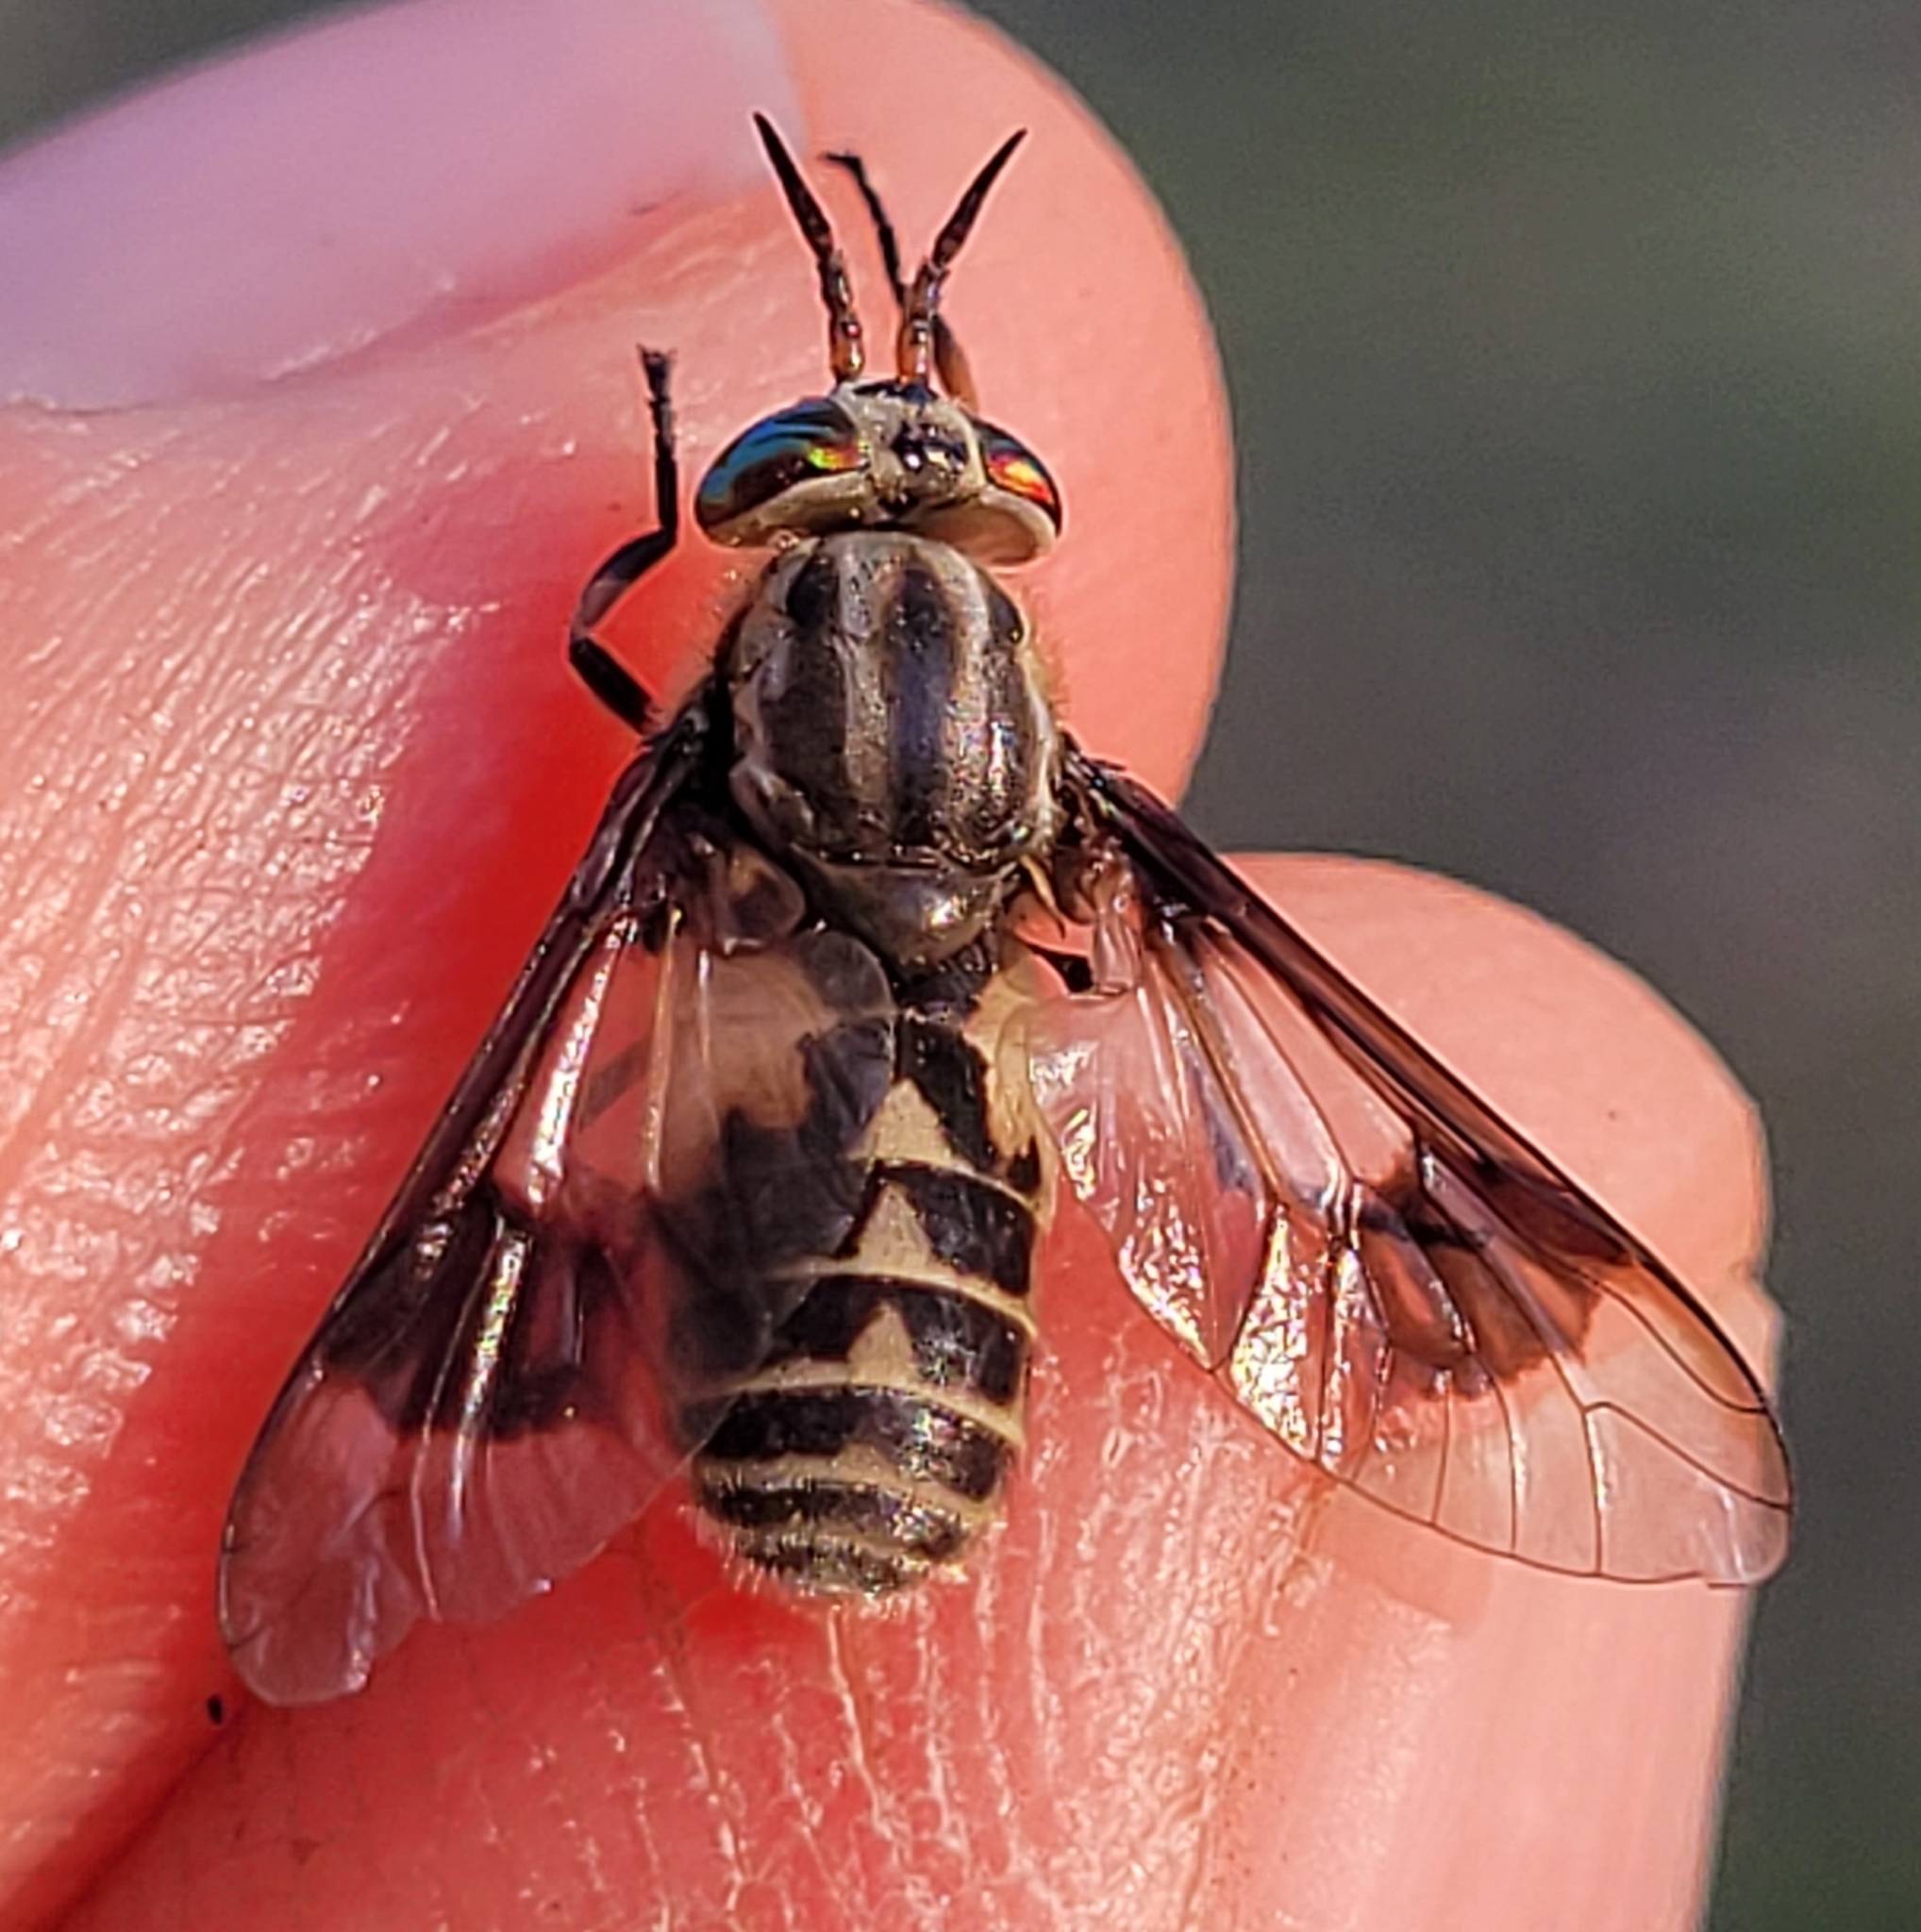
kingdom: Animalia
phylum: Arthropoda
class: Insecta
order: Diptera
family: Tabanidae
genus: Chrysops
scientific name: Chrysops aestuans
